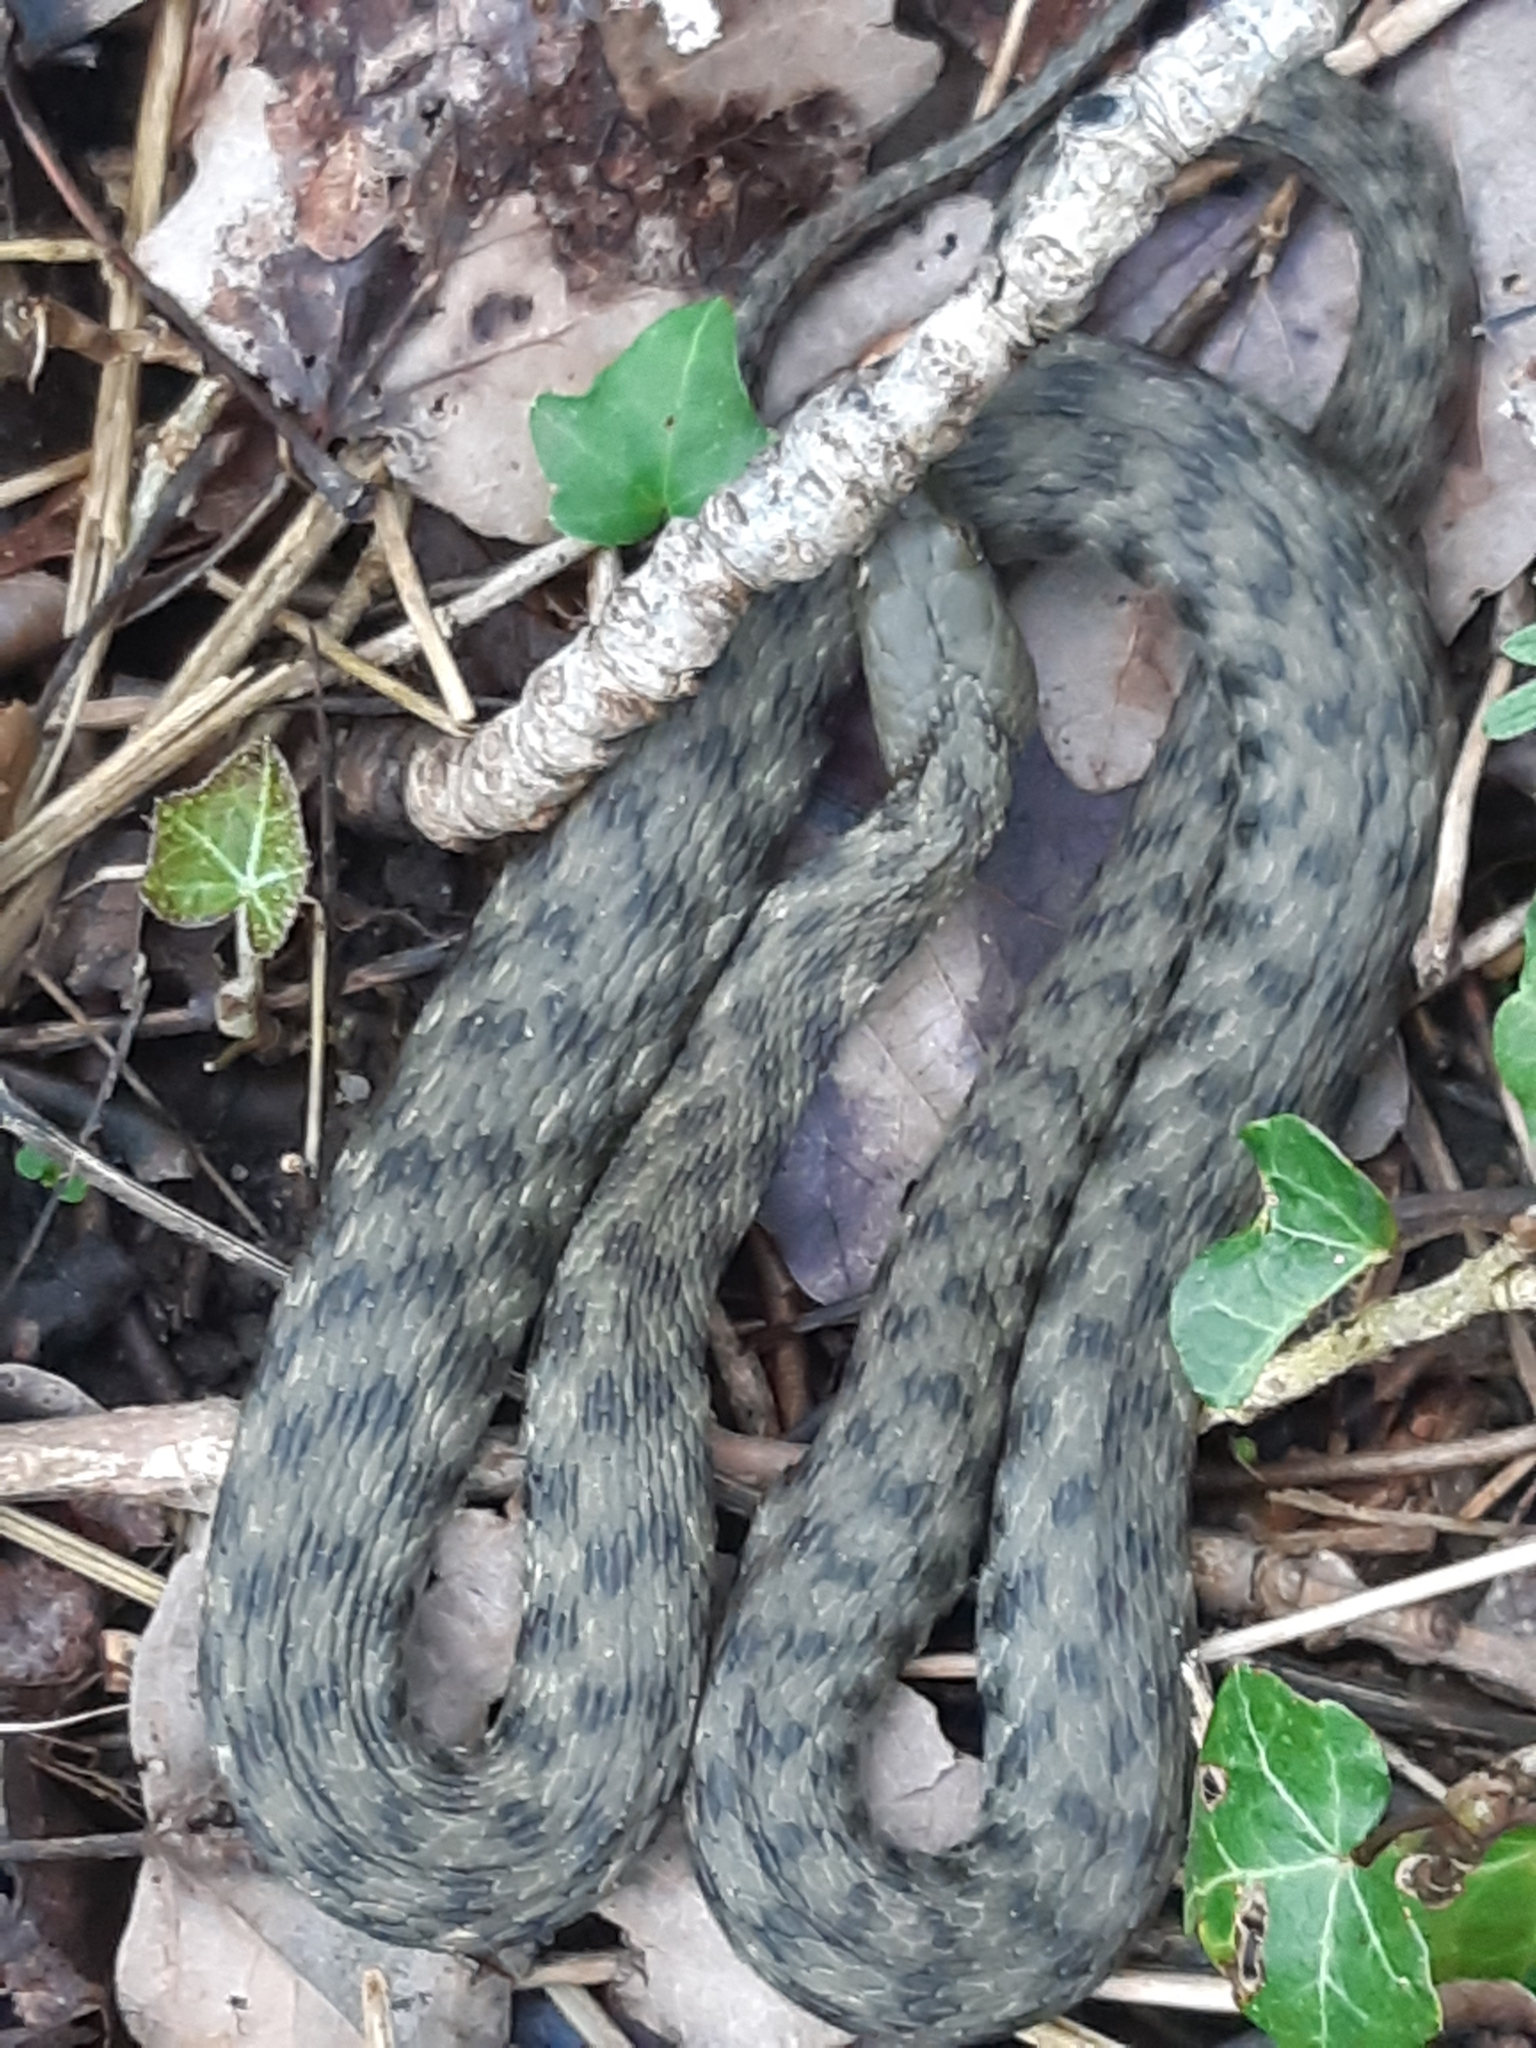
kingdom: Animalia
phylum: Chordata
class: Squamata
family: Colubridae
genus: Natrix
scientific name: Natrix tessellata
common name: Dice snake
